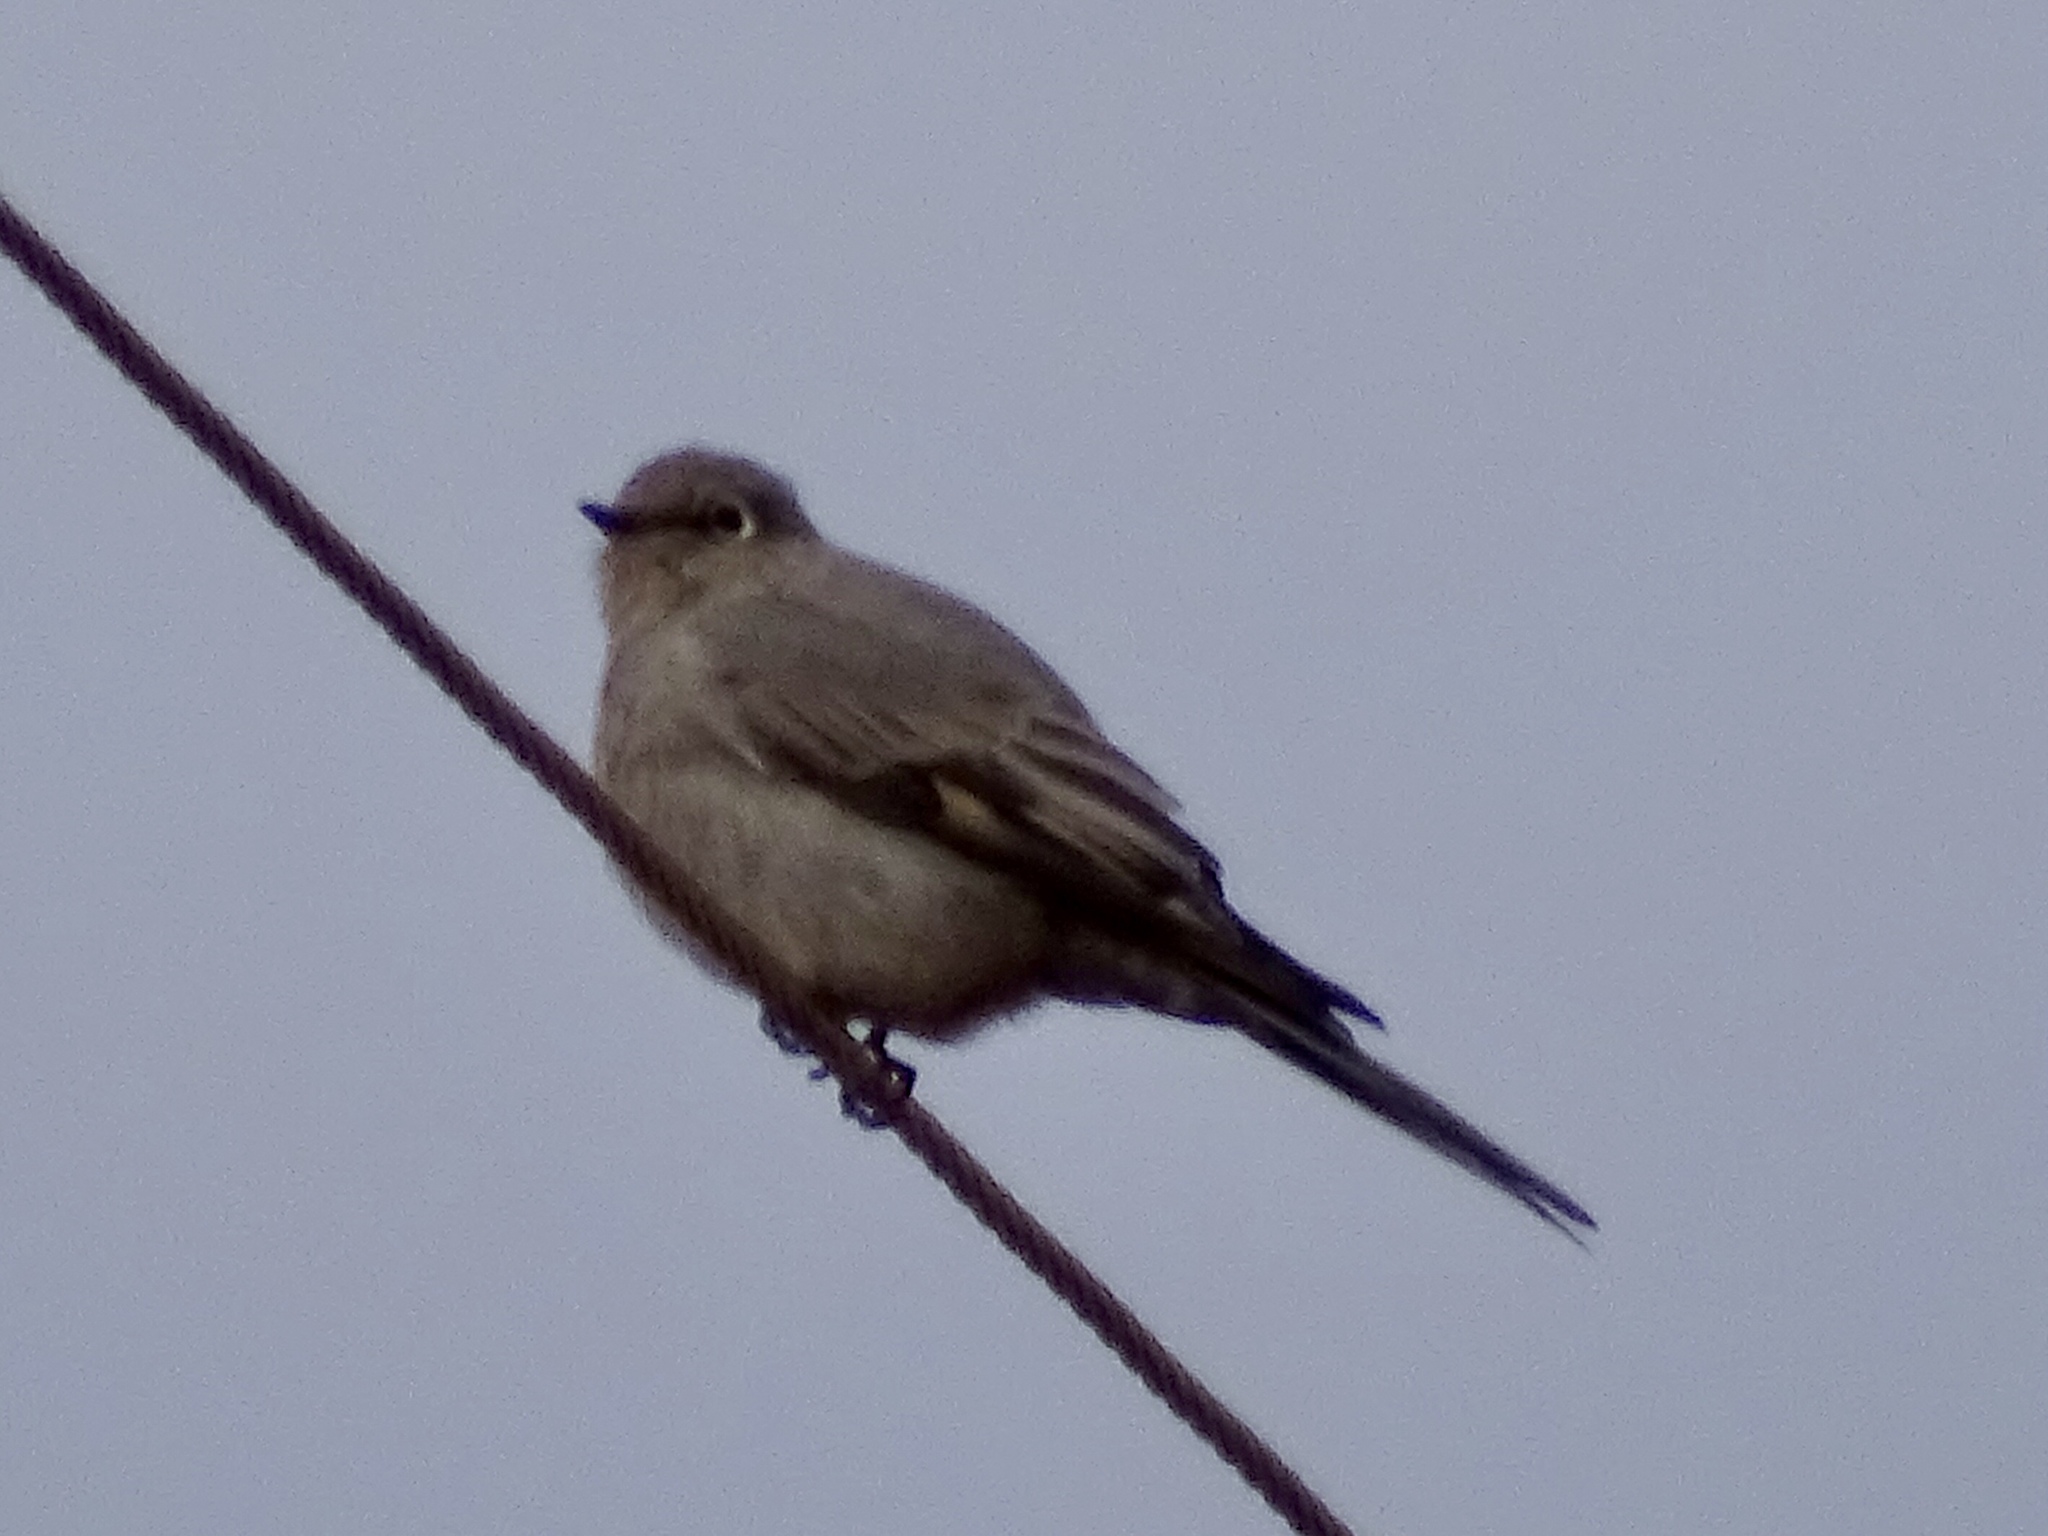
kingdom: Animalia
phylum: Chordata
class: Aves
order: Passeriformes
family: Turdidae
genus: Myadestes
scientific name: Myadestes townsendi
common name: Townsend's solitaire
